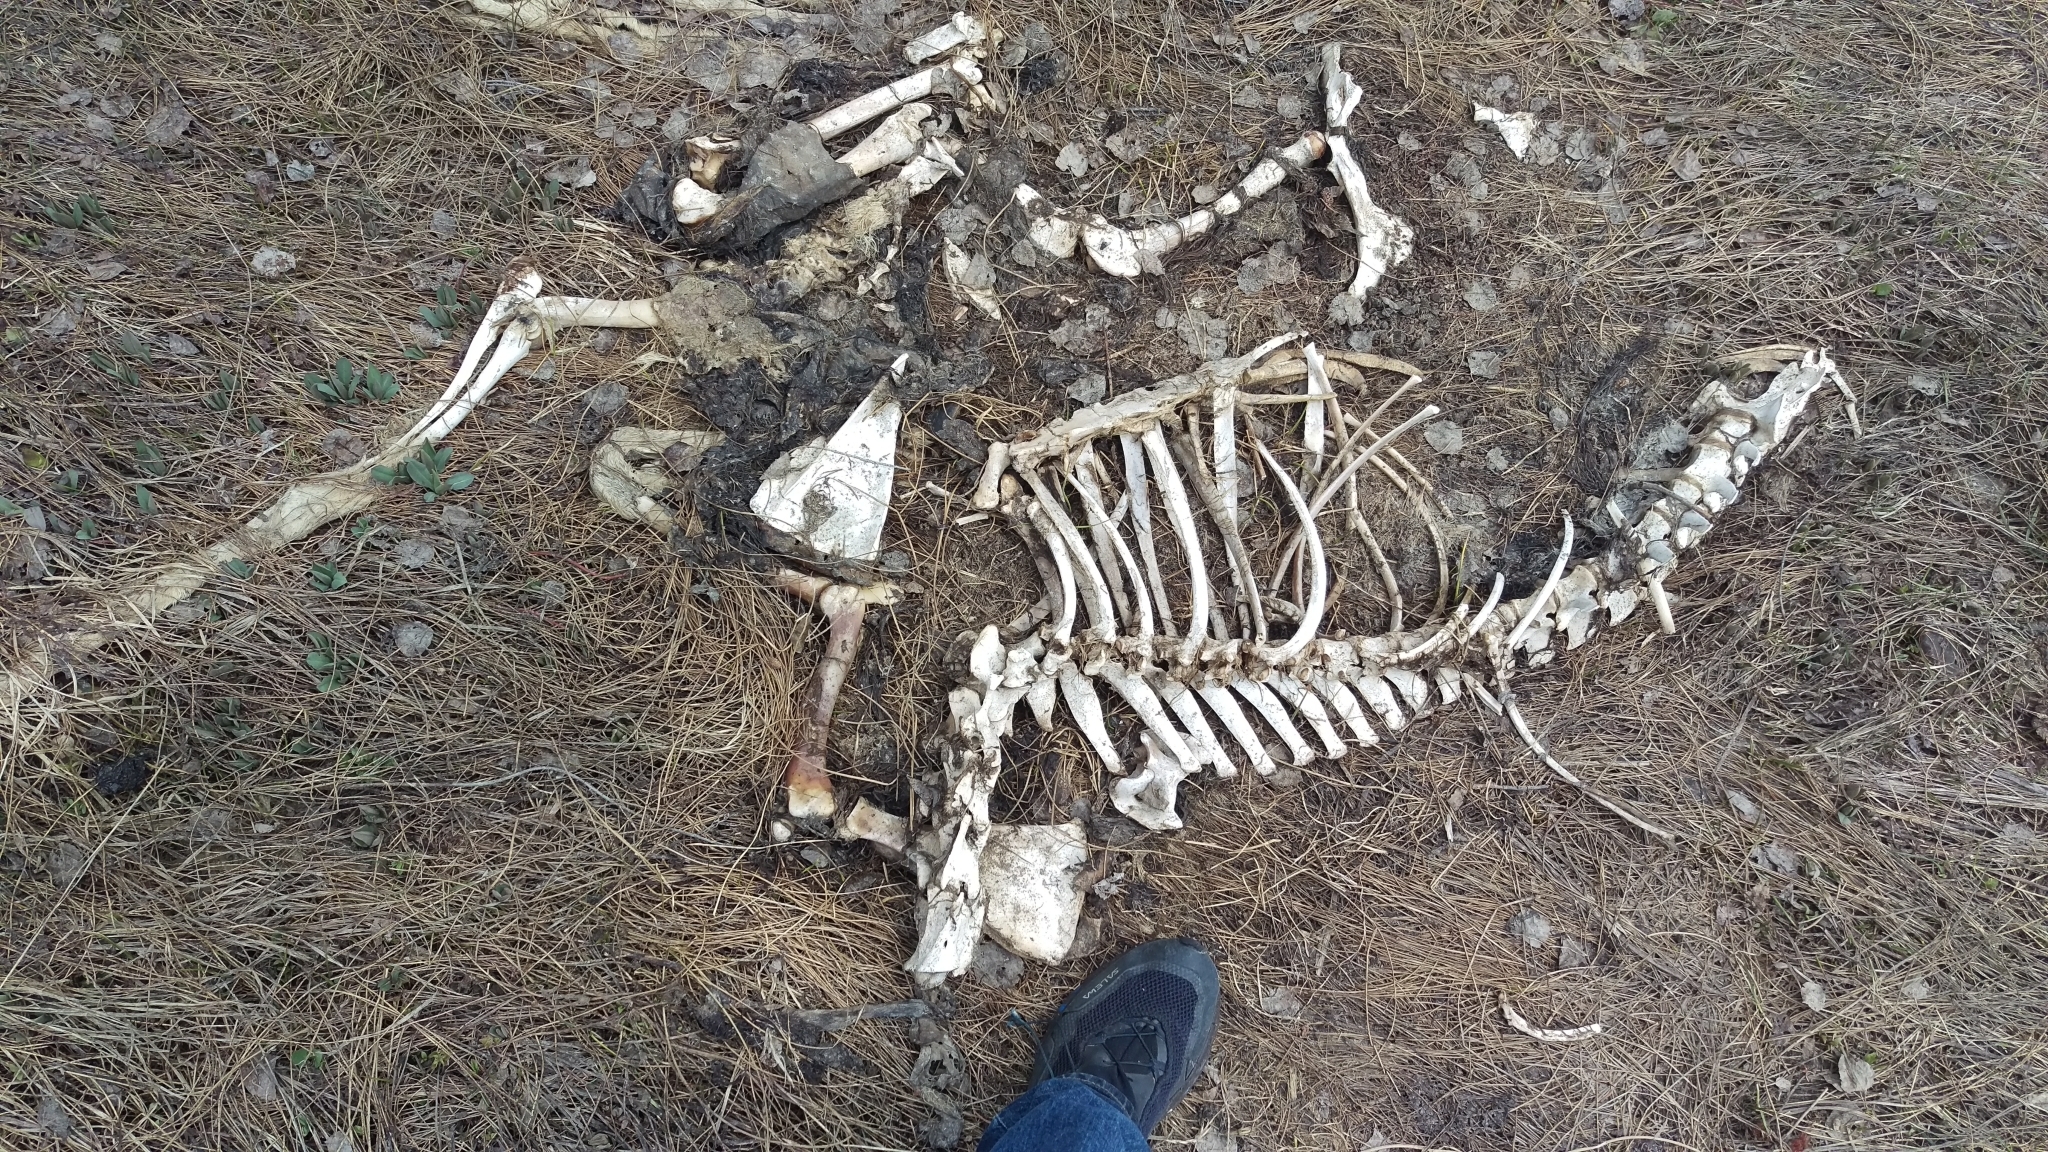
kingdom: Animalia
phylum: Chordata
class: Mammalia
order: Artiodactyla
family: Cervidae
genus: Odocoileus
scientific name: Odocoileus hemionus
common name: Mule deer
